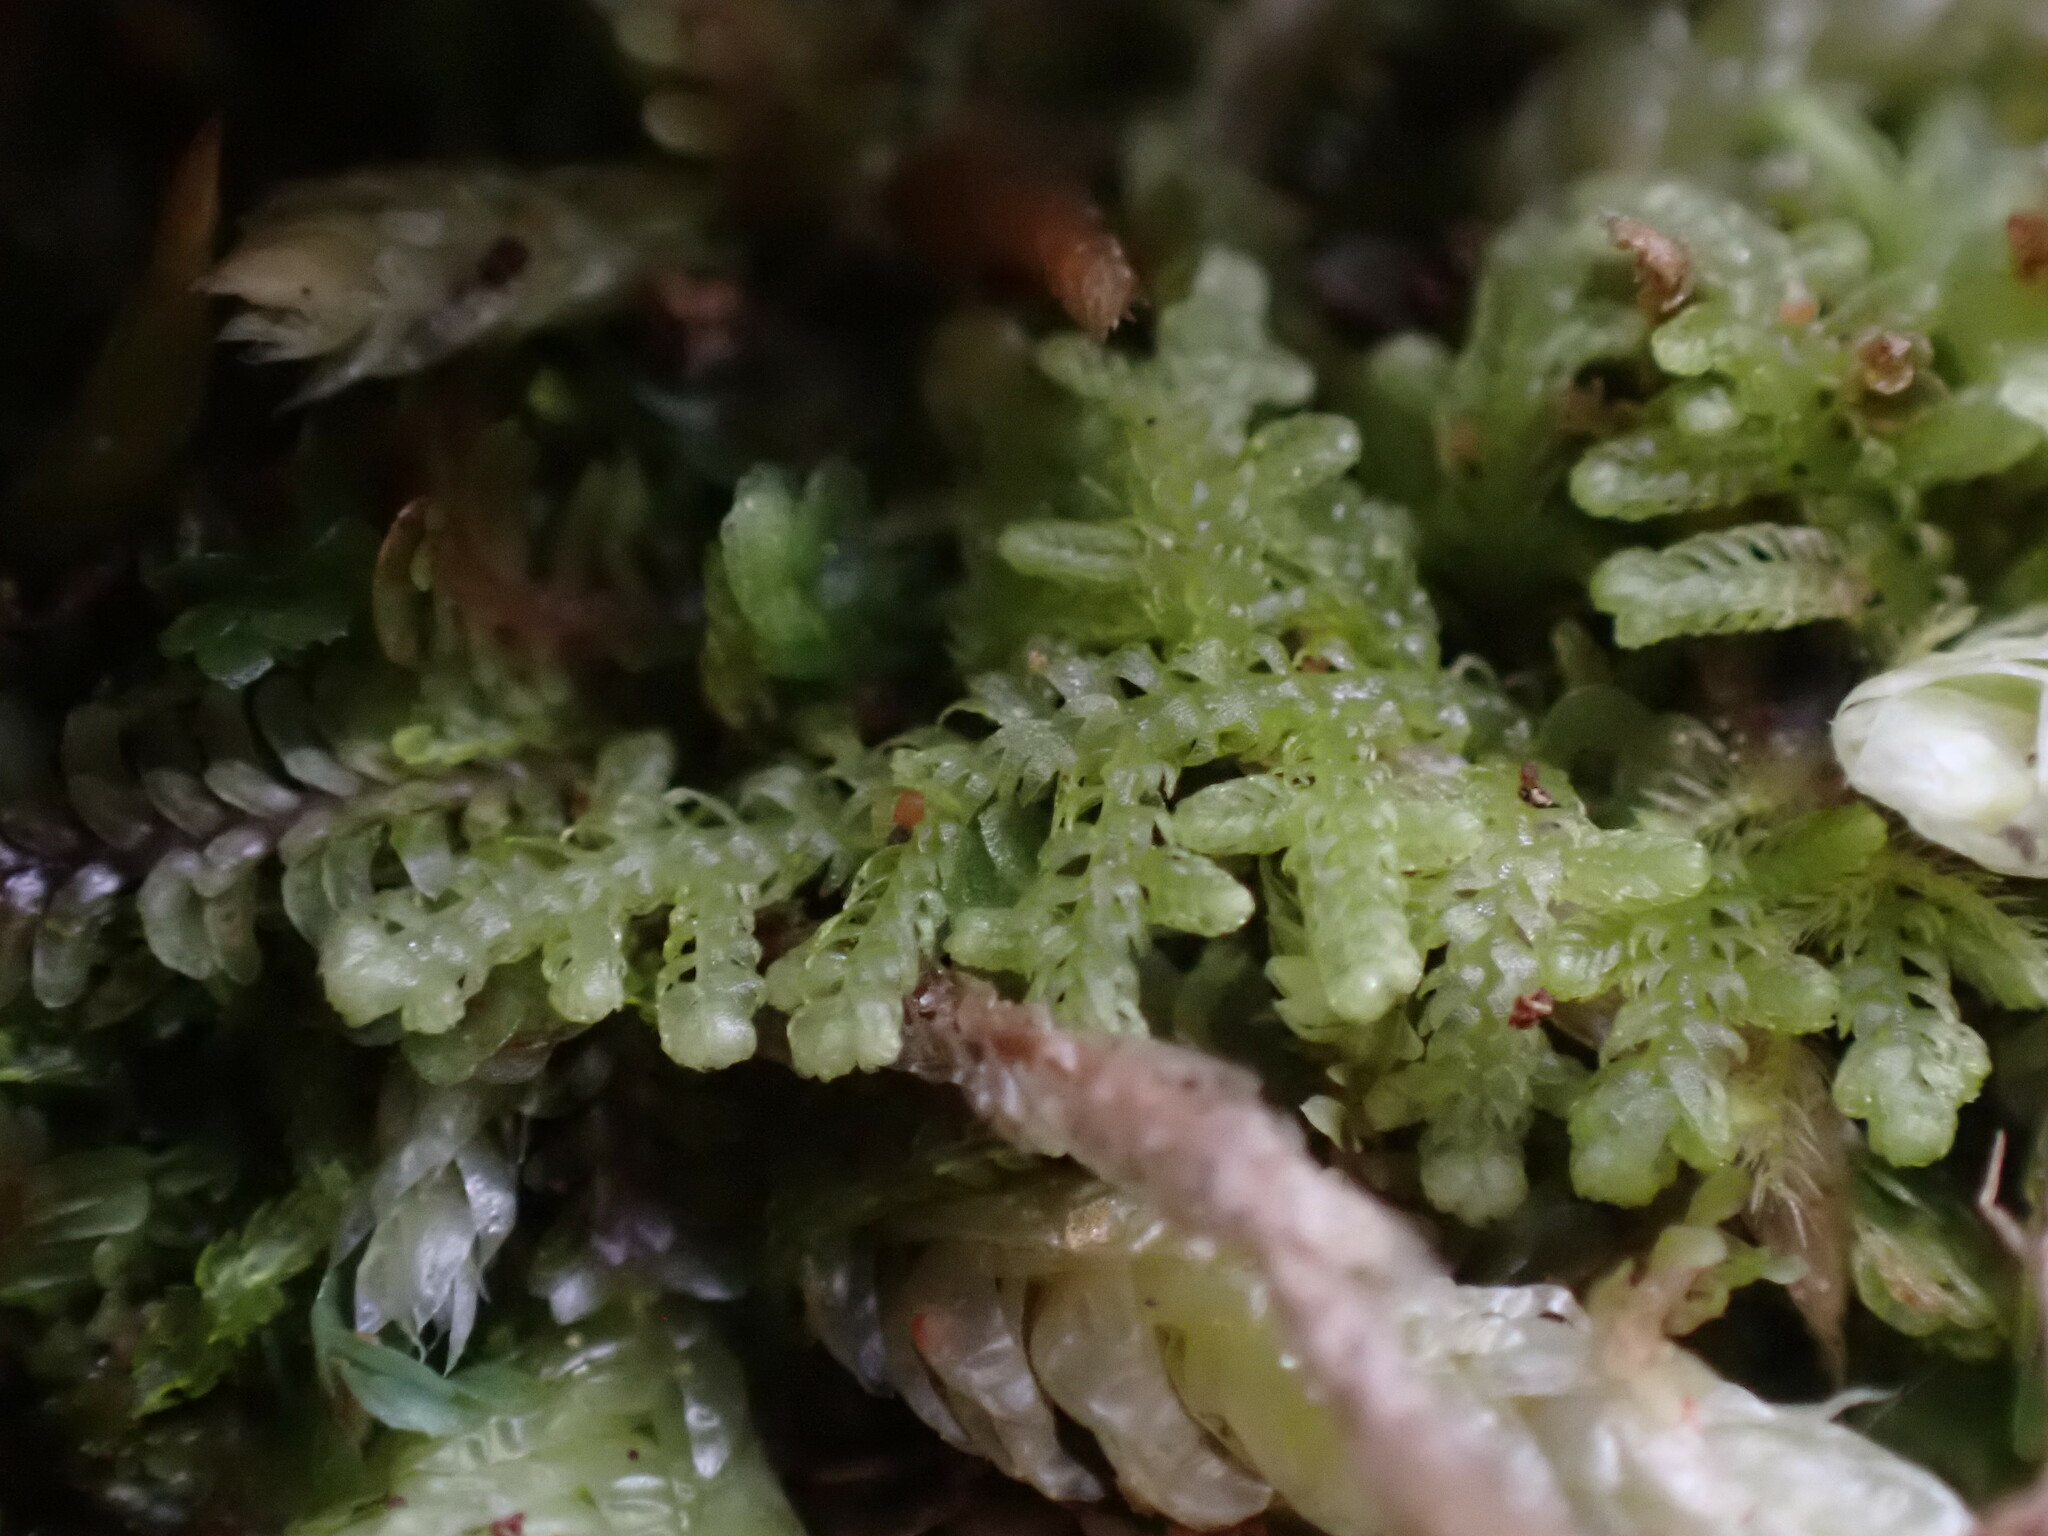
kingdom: Plantae
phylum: Marchantiophyta
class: Jungermanniopsida
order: Jungermanniales
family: Lepidoziaceae
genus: Lepidozia
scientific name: Lepidozia reptans
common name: Creeping fingerwort
